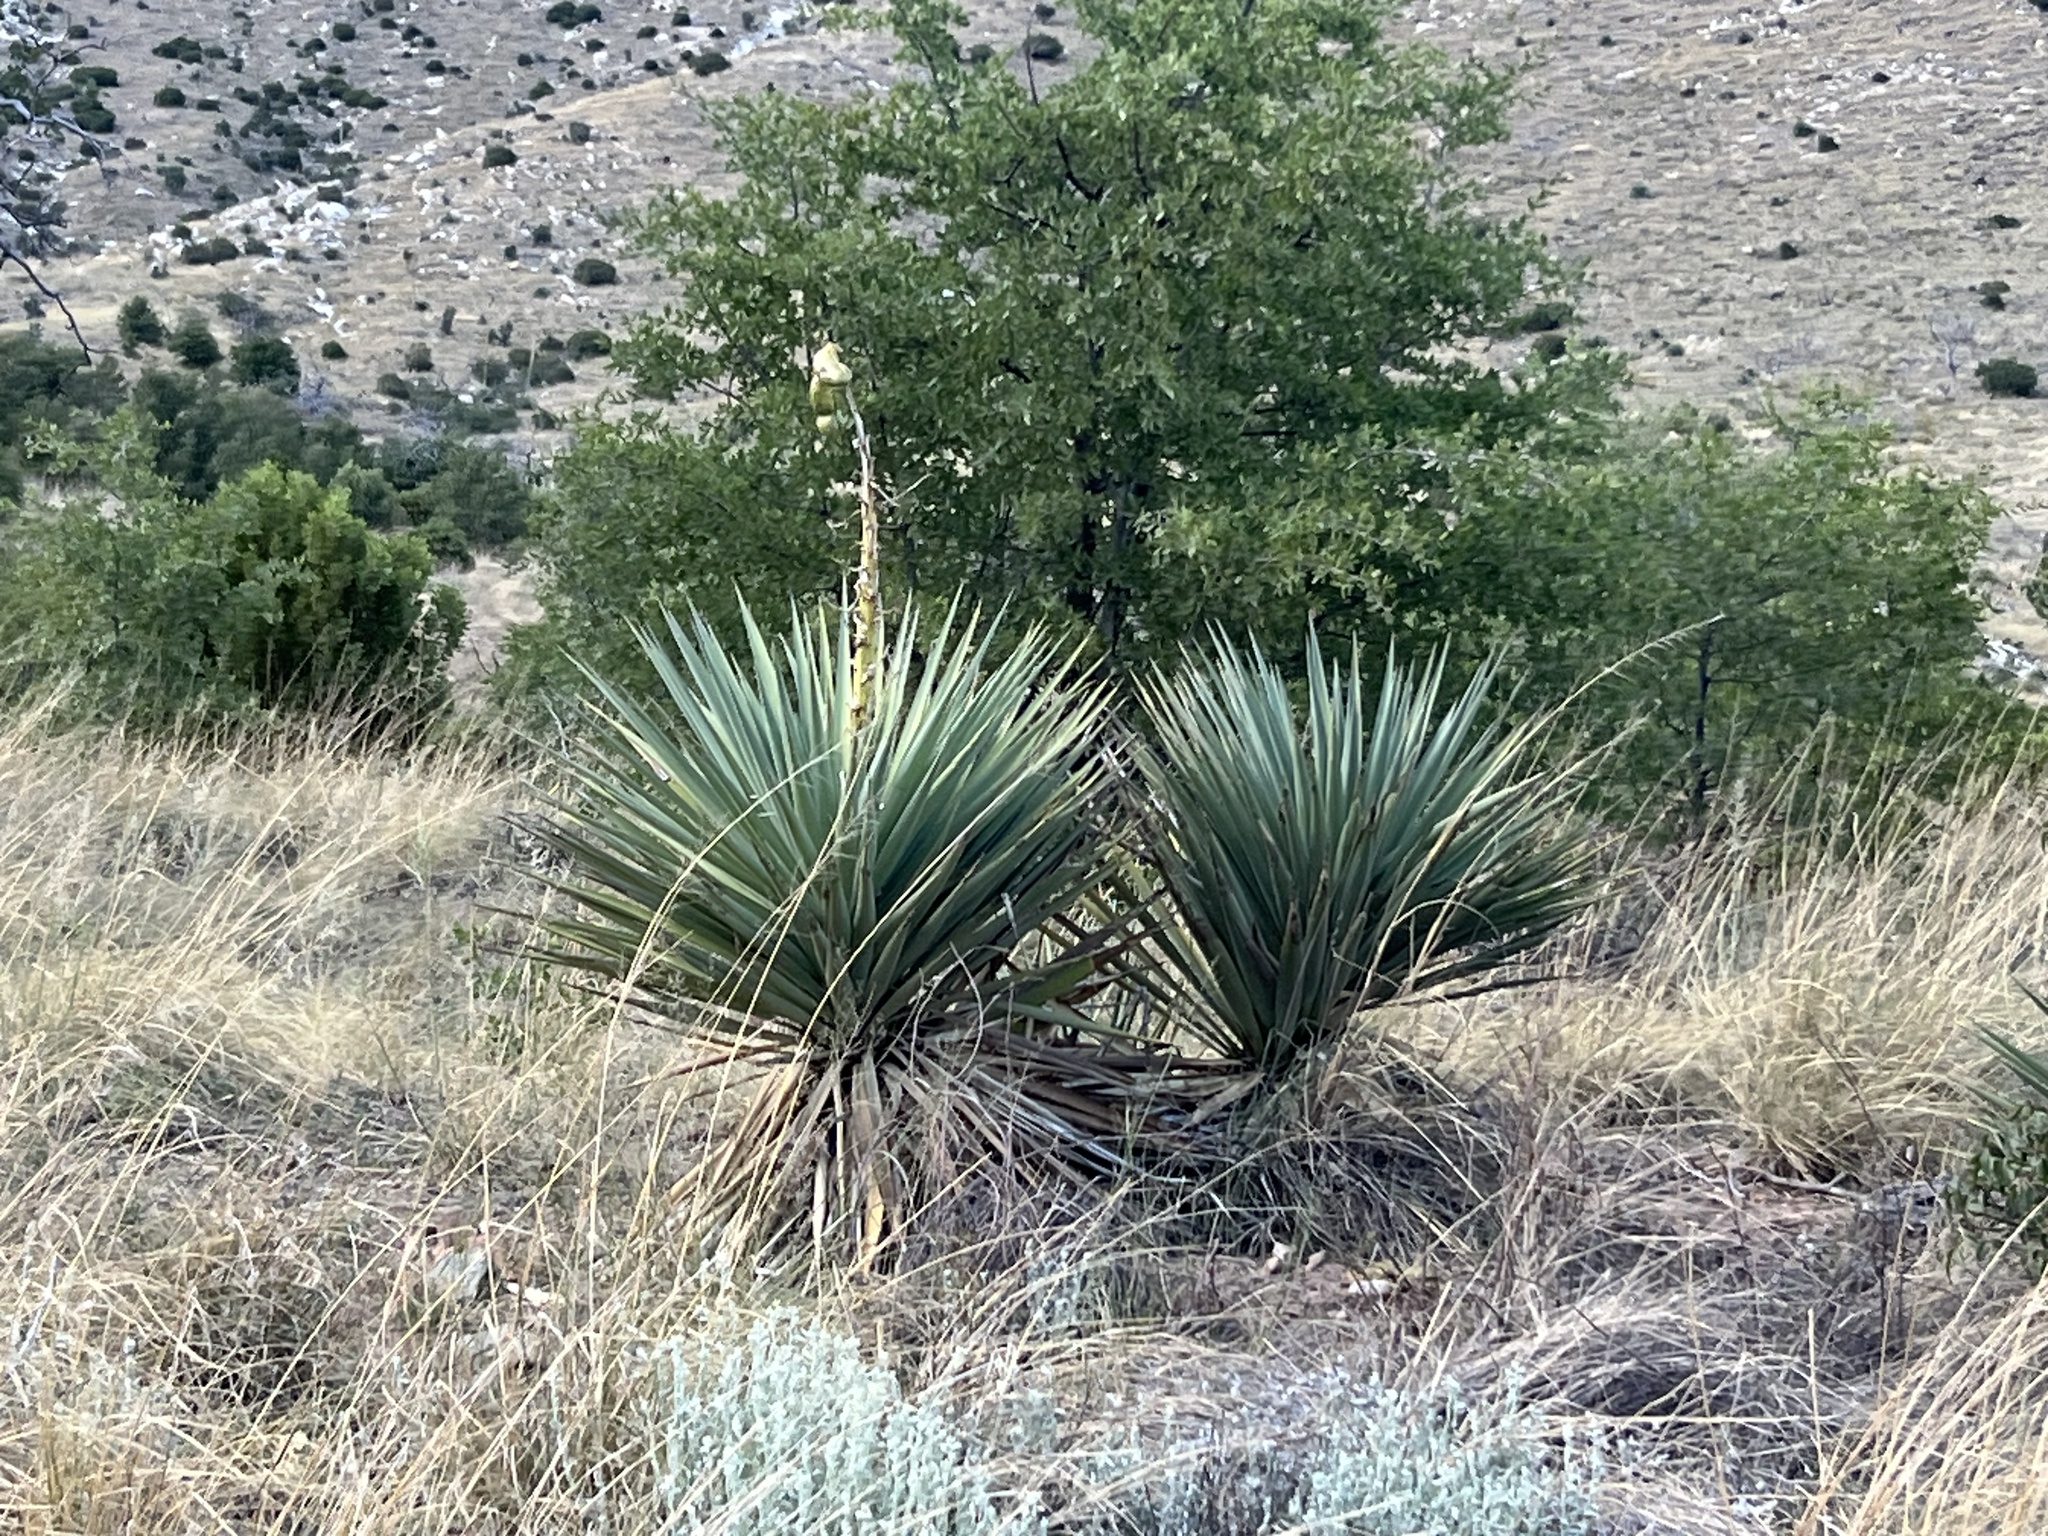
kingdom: Plantae
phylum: Tracheophyta
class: Liliopsida
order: Asparagales
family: Asparagaceae
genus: Yucca
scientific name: Yucca schottii
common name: Hoary yucca
